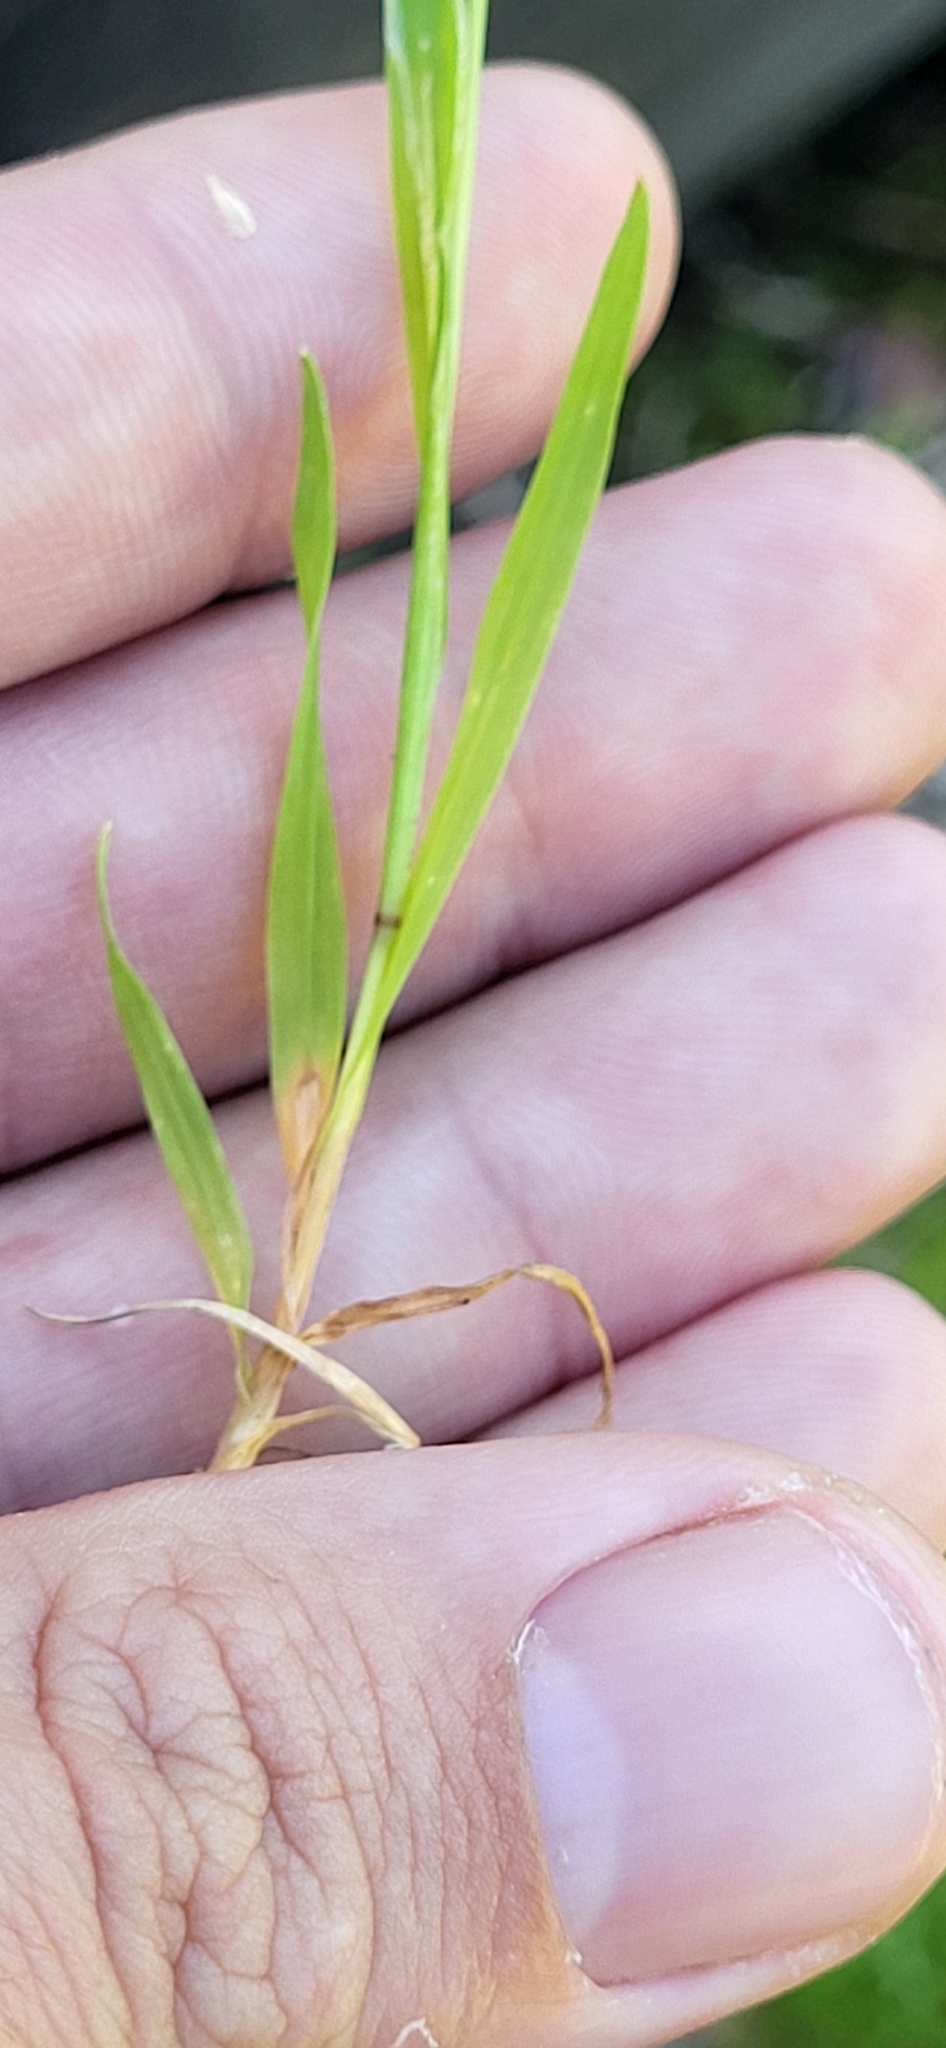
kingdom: Plantae
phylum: Tracheophyta
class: Liliopsida
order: Poales
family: Poaceae
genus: Briza
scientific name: Briza minor
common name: Lesser quaking-grass
